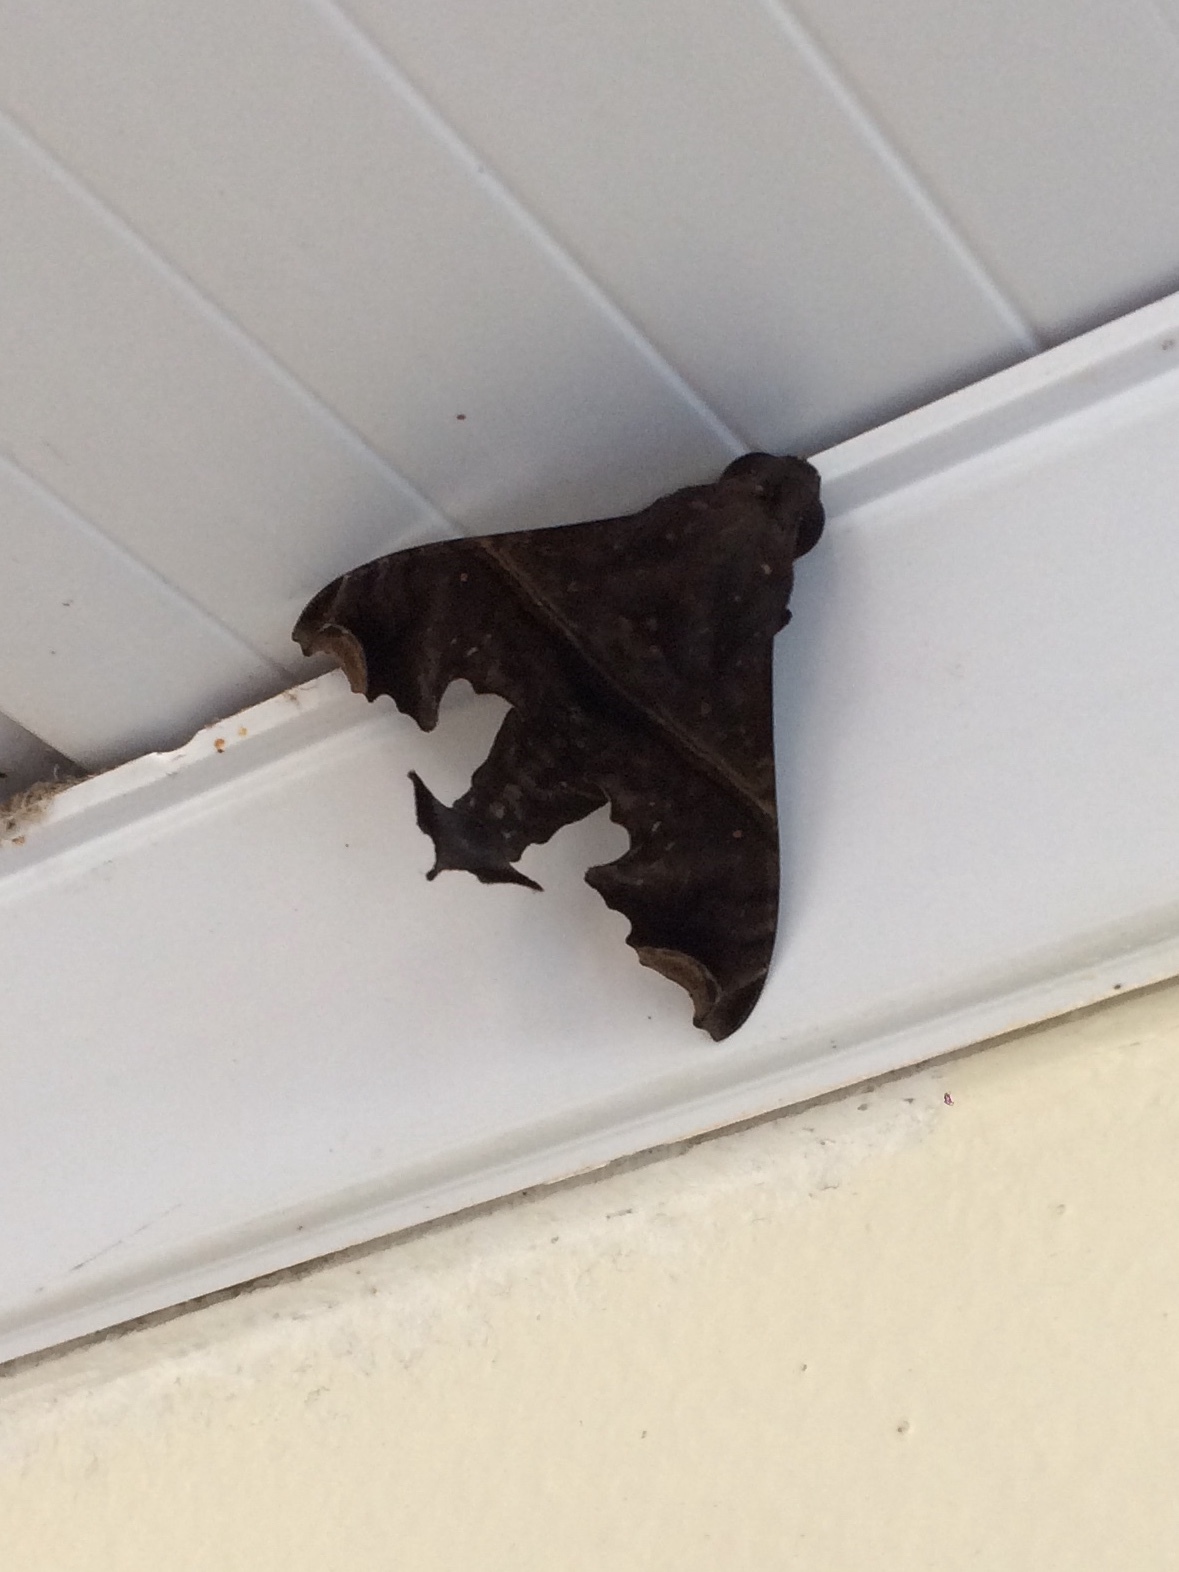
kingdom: Animalia
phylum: Arthropoda
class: Insecta
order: Lepidoptera
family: Sphingidae
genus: Enyo
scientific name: Enyo ocypete
